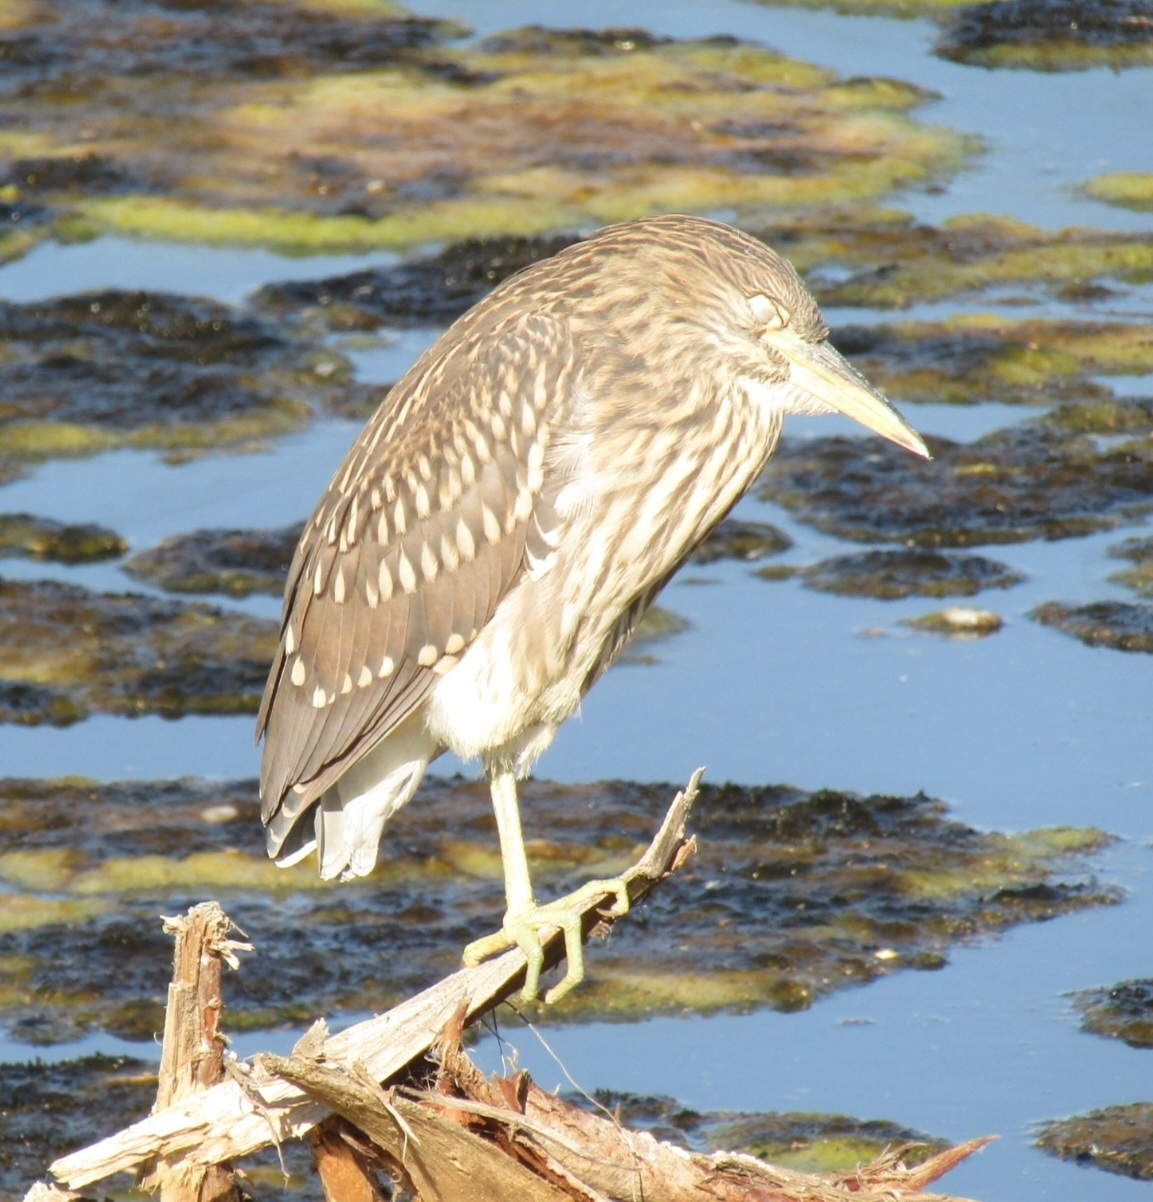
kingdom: Animalia
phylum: Chordata
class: Aves
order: Pelecaniformes
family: Ardeidae
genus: Nycticorax
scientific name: Nycticorax nycticorax
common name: Black-crowned night heron
